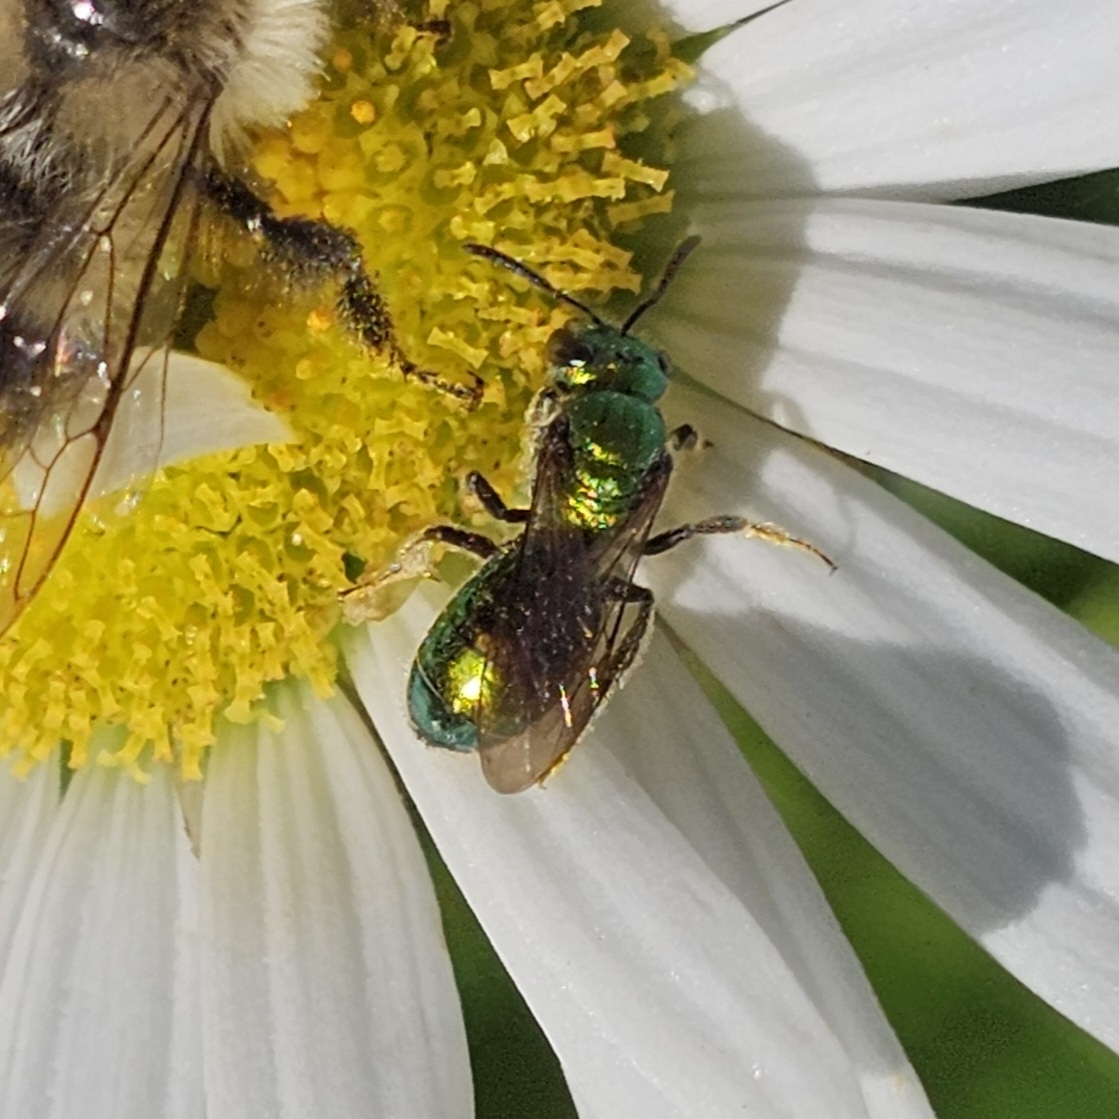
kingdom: Animalia
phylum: Arthropoda
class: Insecta
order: Hymenoptera
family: Halictidae
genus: Augochlora
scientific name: Augochlora pura
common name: Pure green sweat bee
